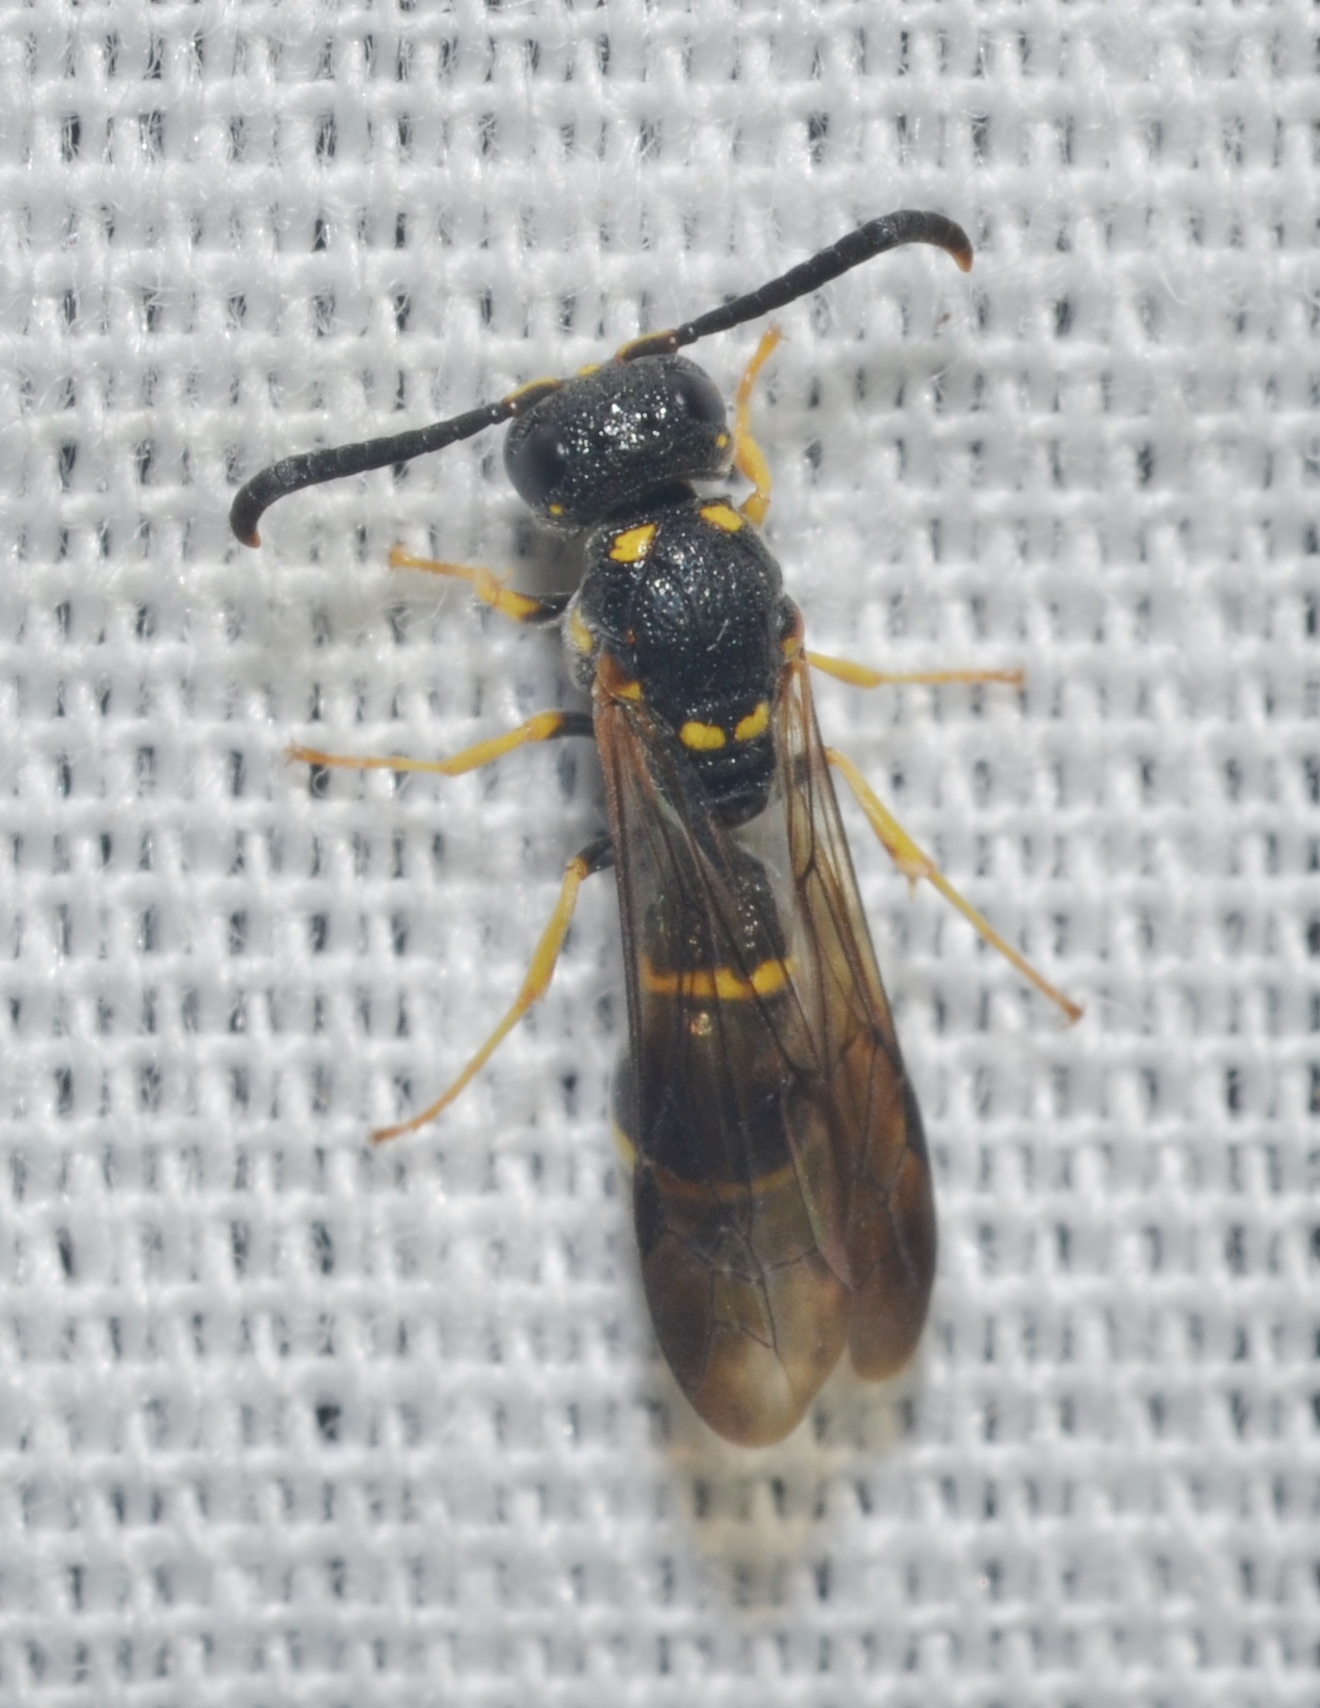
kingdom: Animalia
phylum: Arthropoda
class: Insecta
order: Hymenoptera
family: Eumenidae
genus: Symmorphus
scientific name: Symmorphus
